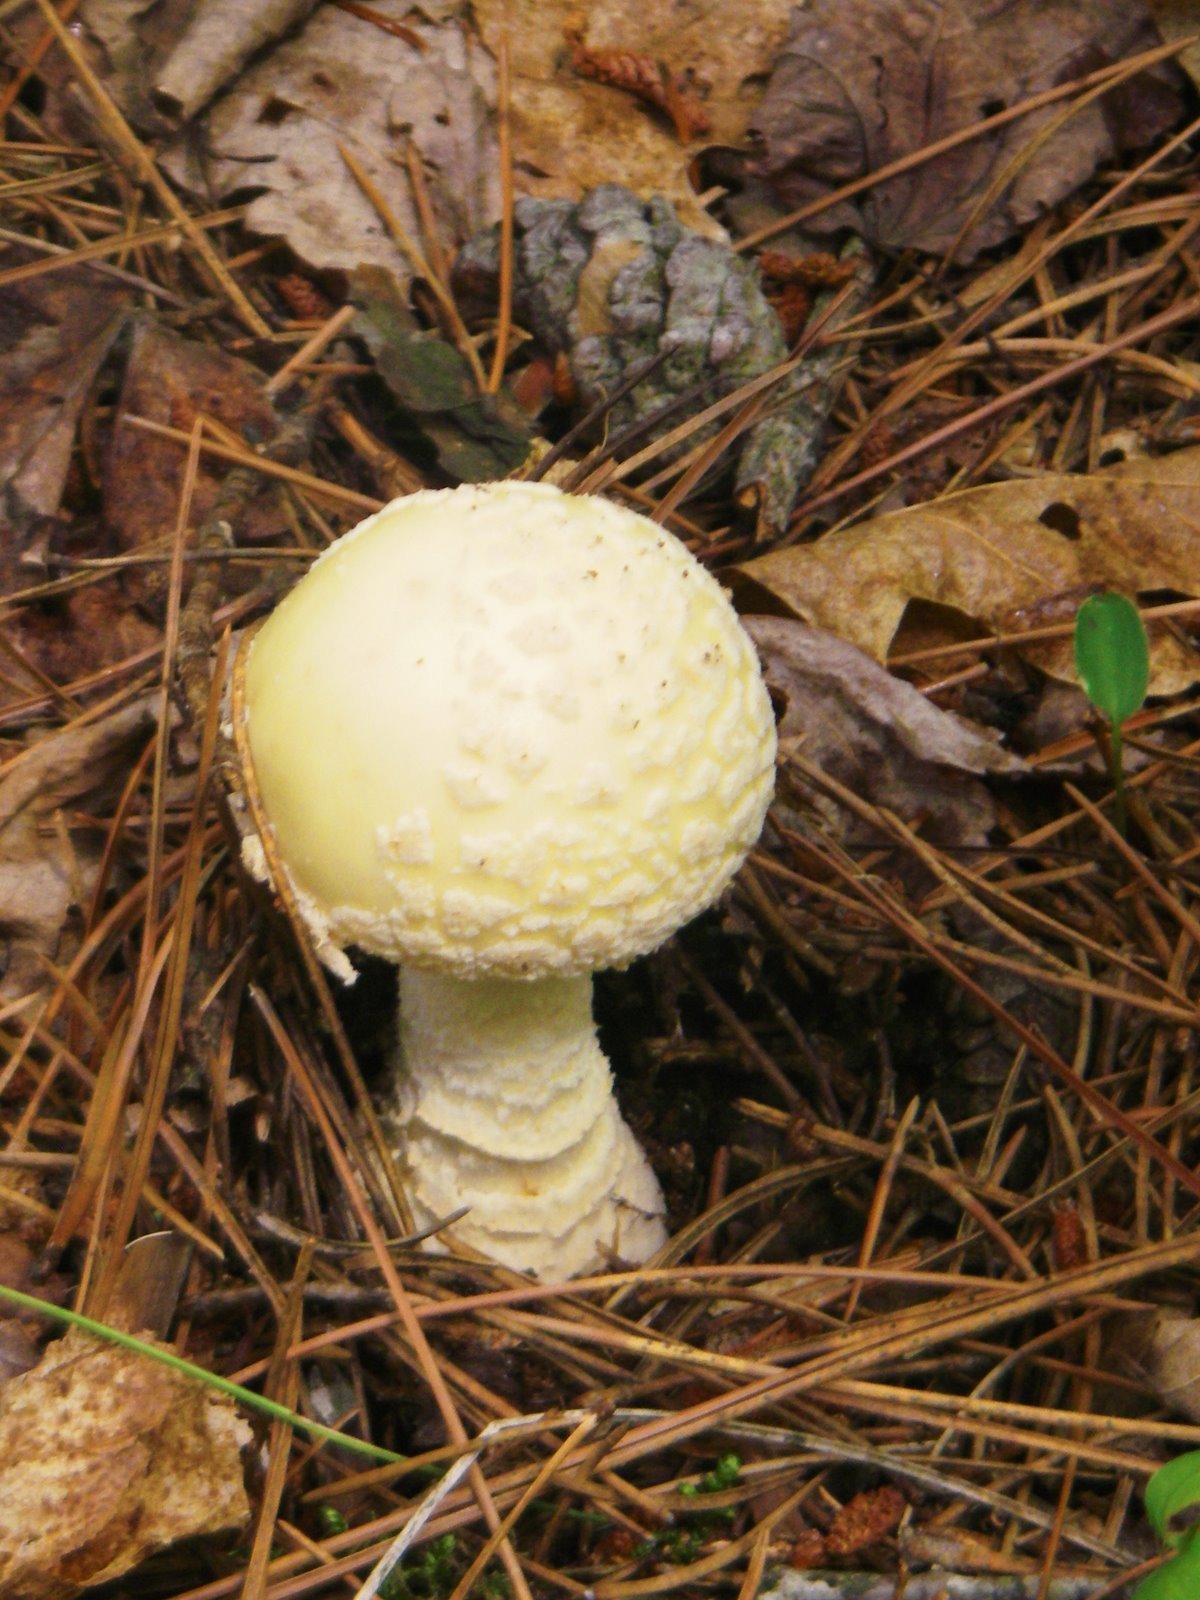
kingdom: Fungi
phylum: Basidiomycota
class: Agaricomycetes
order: Agaricales
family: Amanitaceae
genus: Amanita
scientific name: Amanita muscaria
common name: Fly agaric
